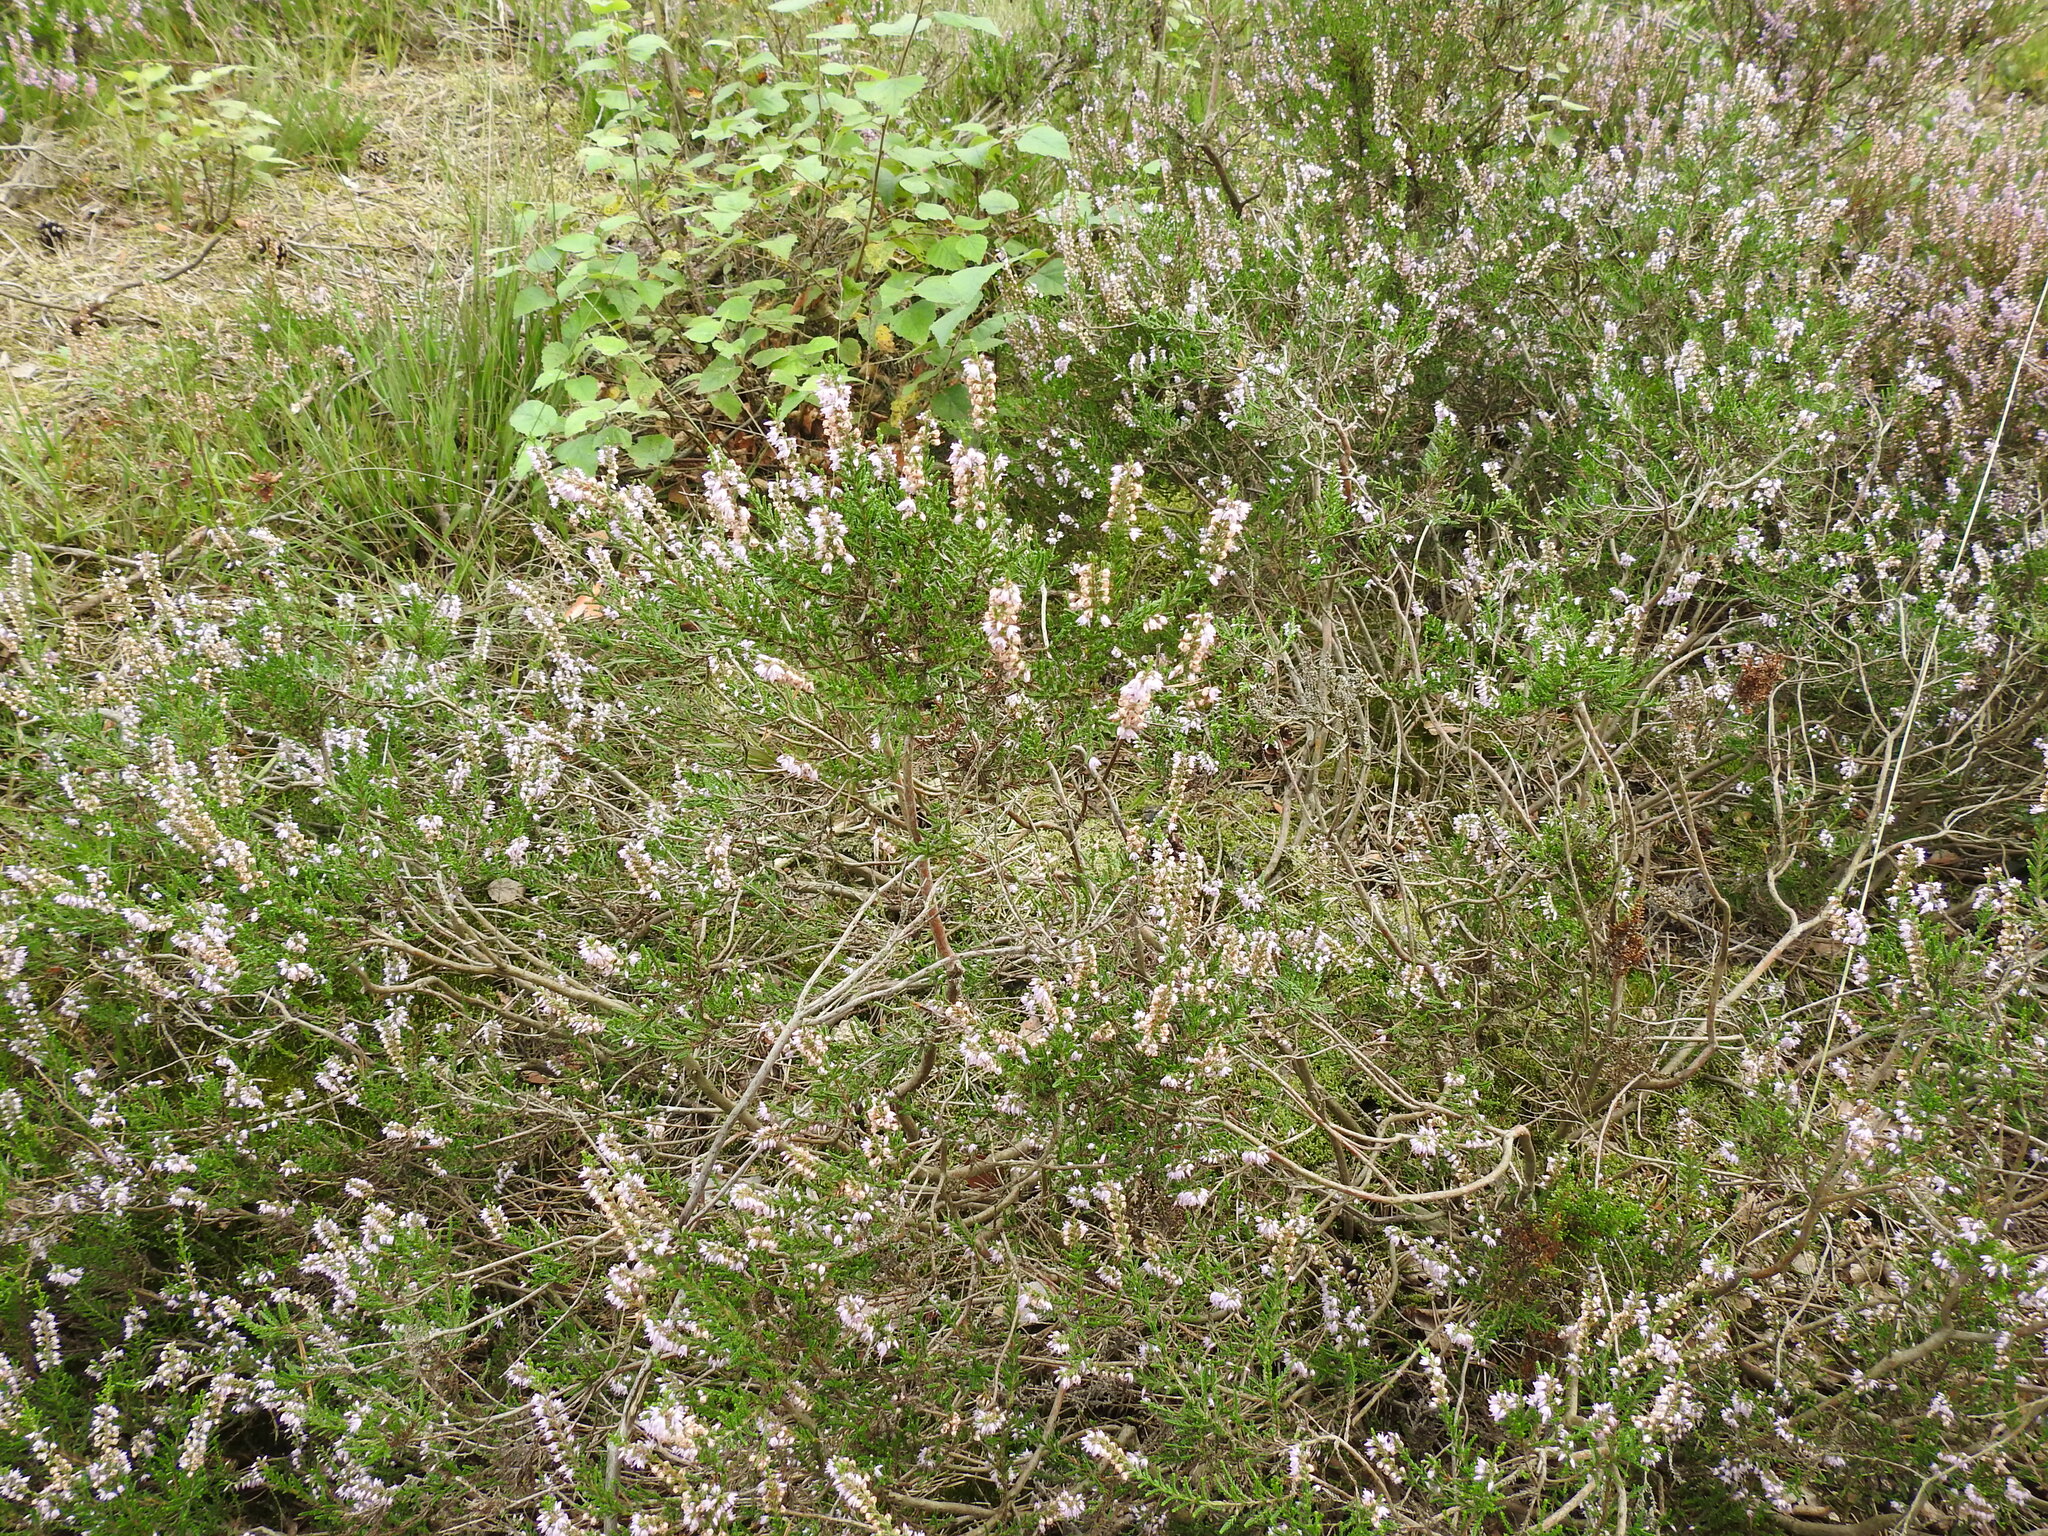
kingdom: Plantae
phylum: Tracheophyta
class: Magnoliopsida
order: Ericales
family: Ericaceae
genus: Calluna
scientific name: Calluna vulgaris
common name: Heather
